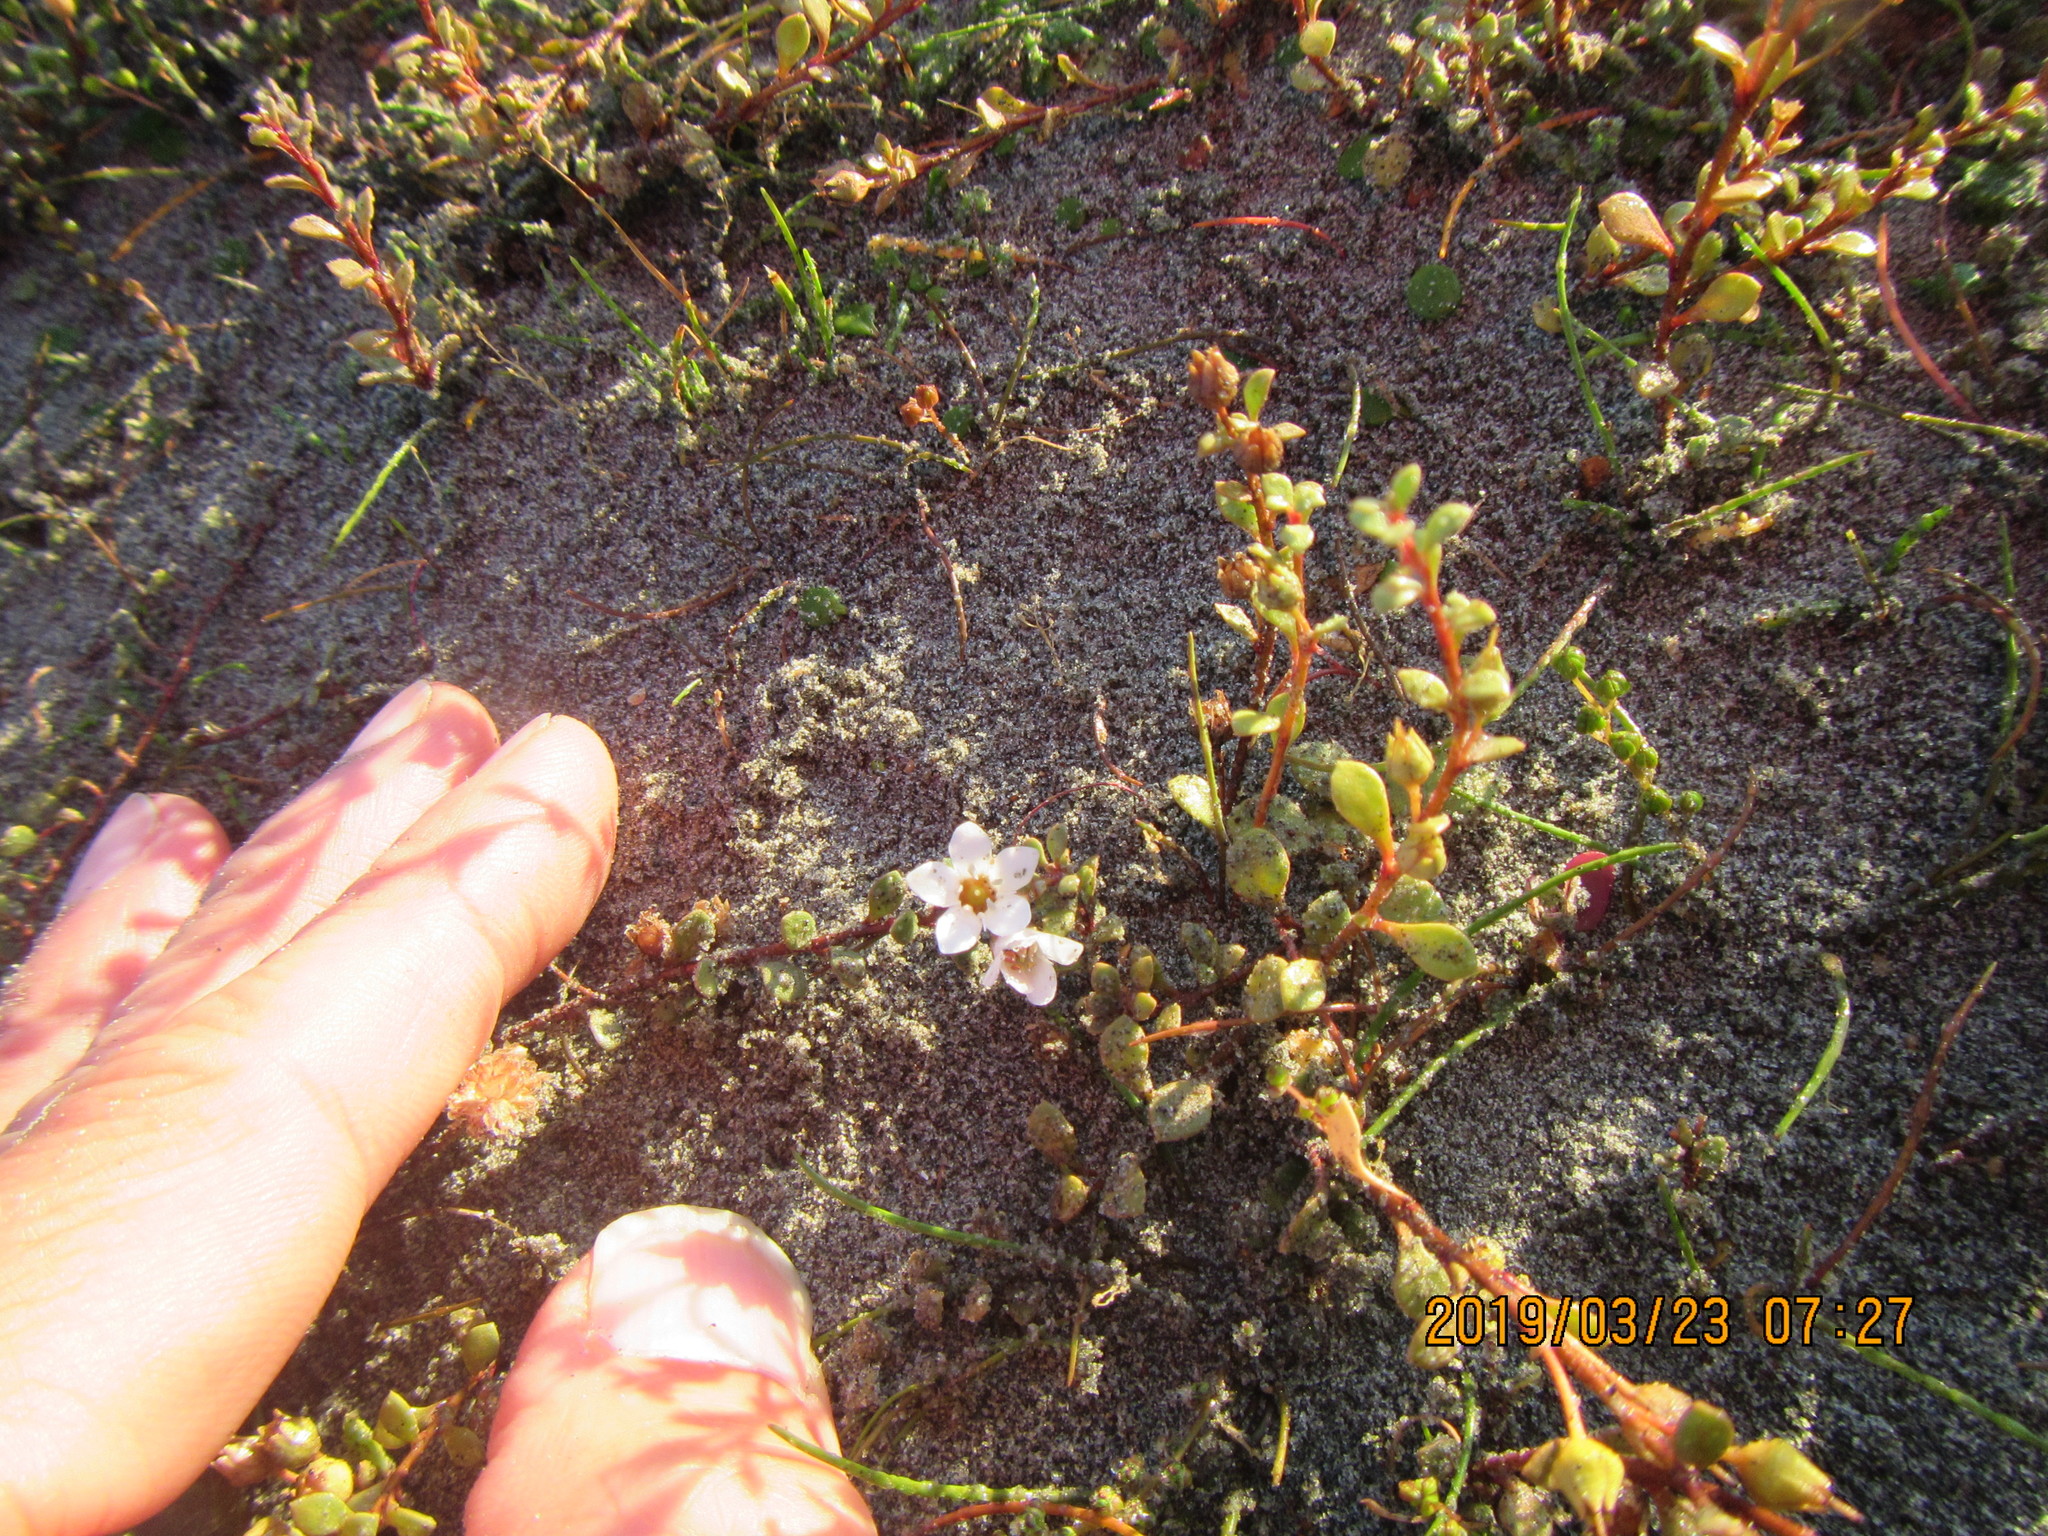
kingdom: Plantae
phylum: Tracheophyta
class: Magnoliopsida
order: Ericales
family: Primulaceae
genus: Samolus
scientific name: Samolus repens
